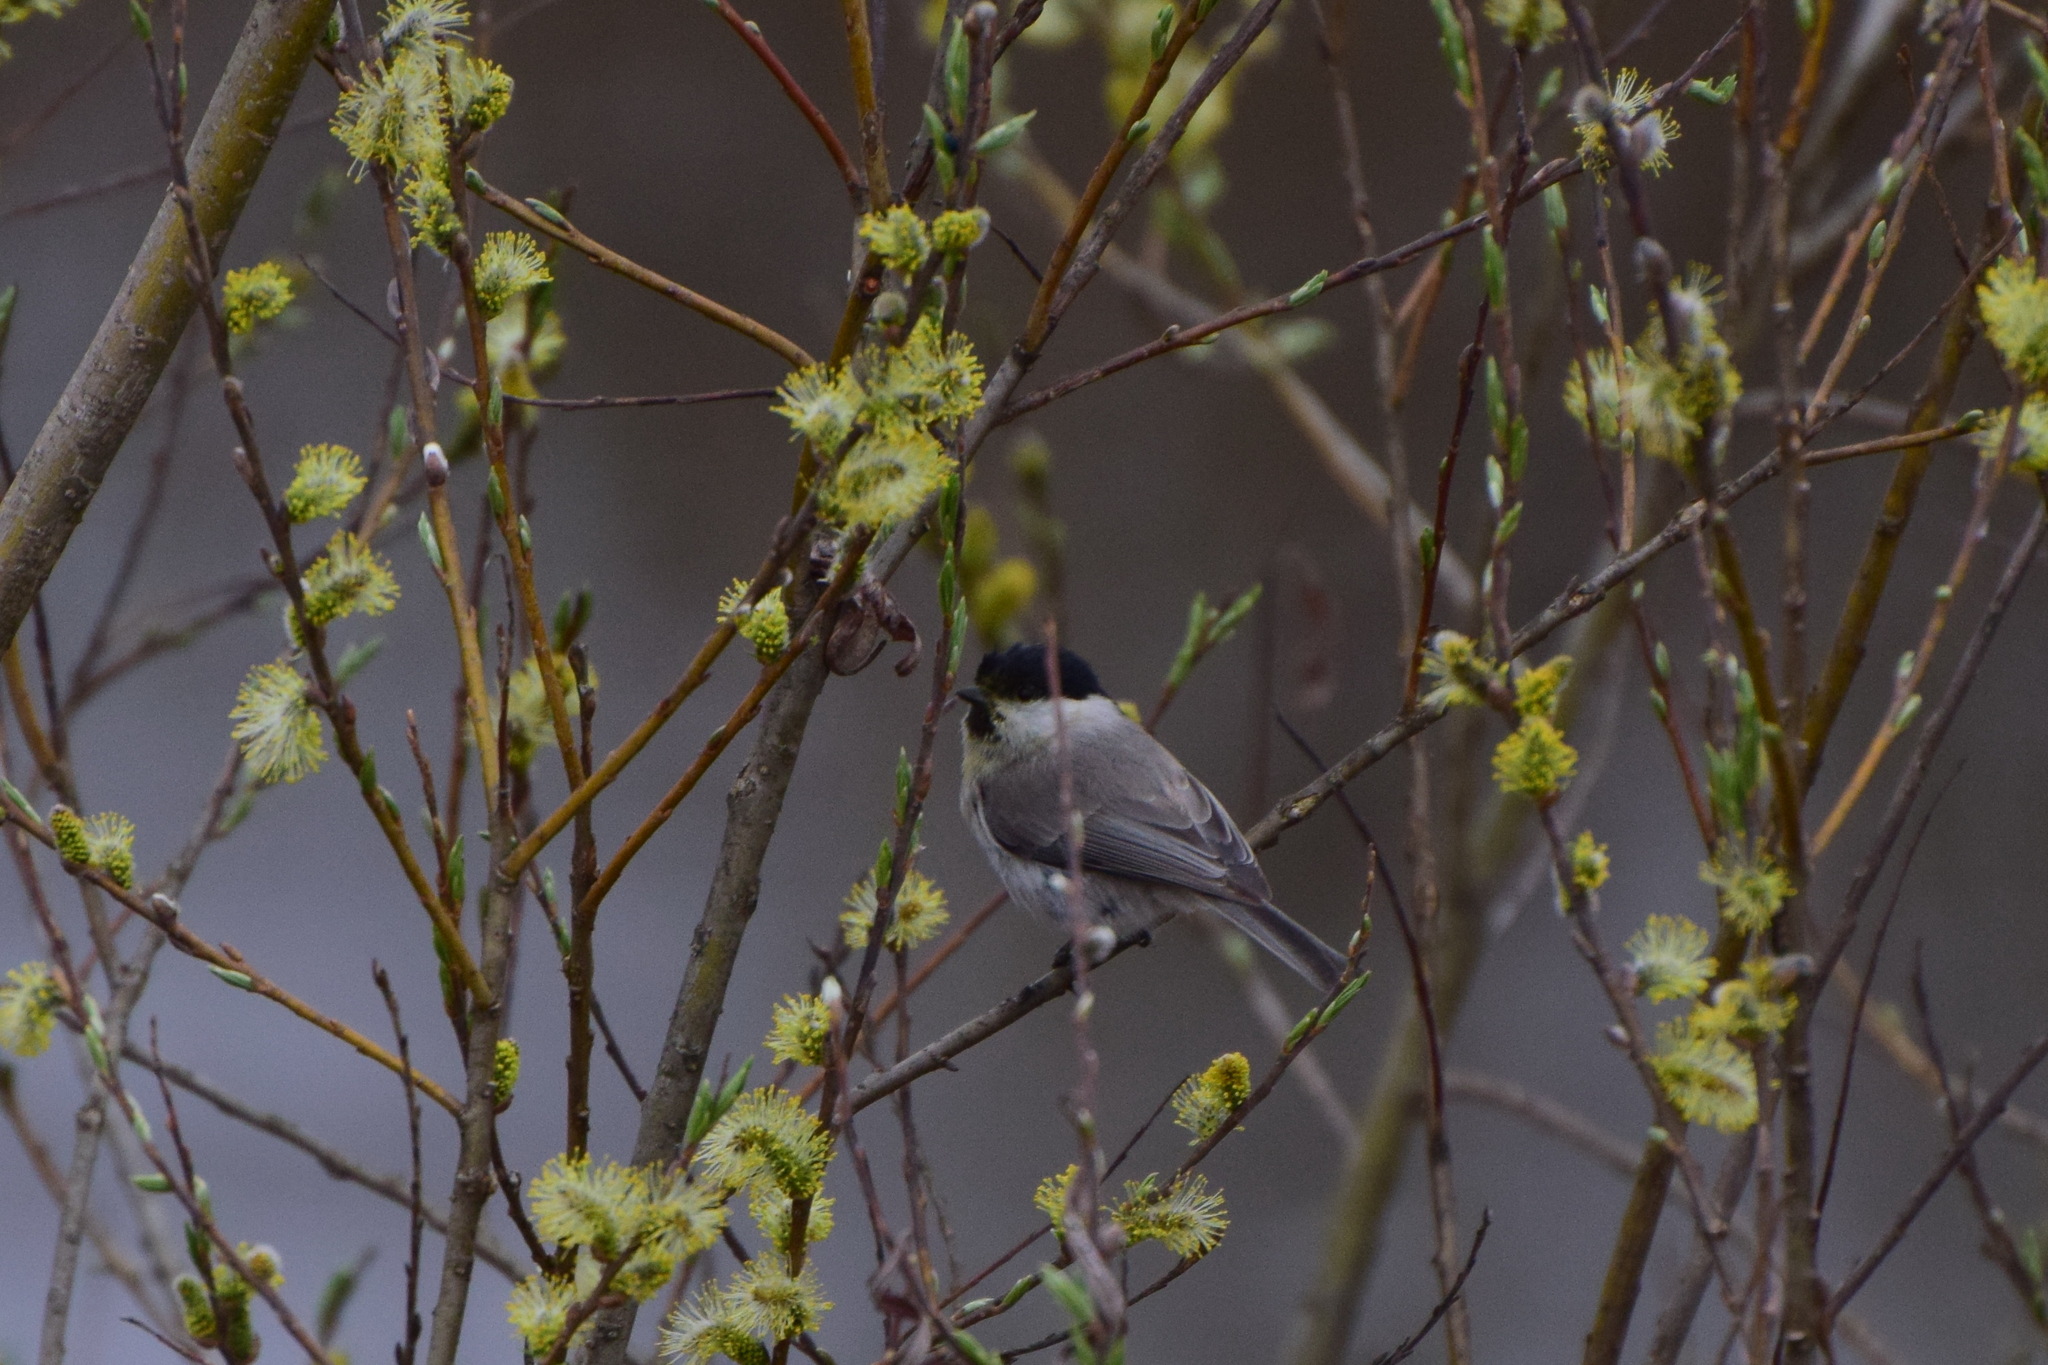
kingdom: Animalia
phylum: Chordata
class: Aves
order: Passeriformes
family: Paridae
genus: Poecile
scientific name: Poecile palustris
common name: Marsh tit
